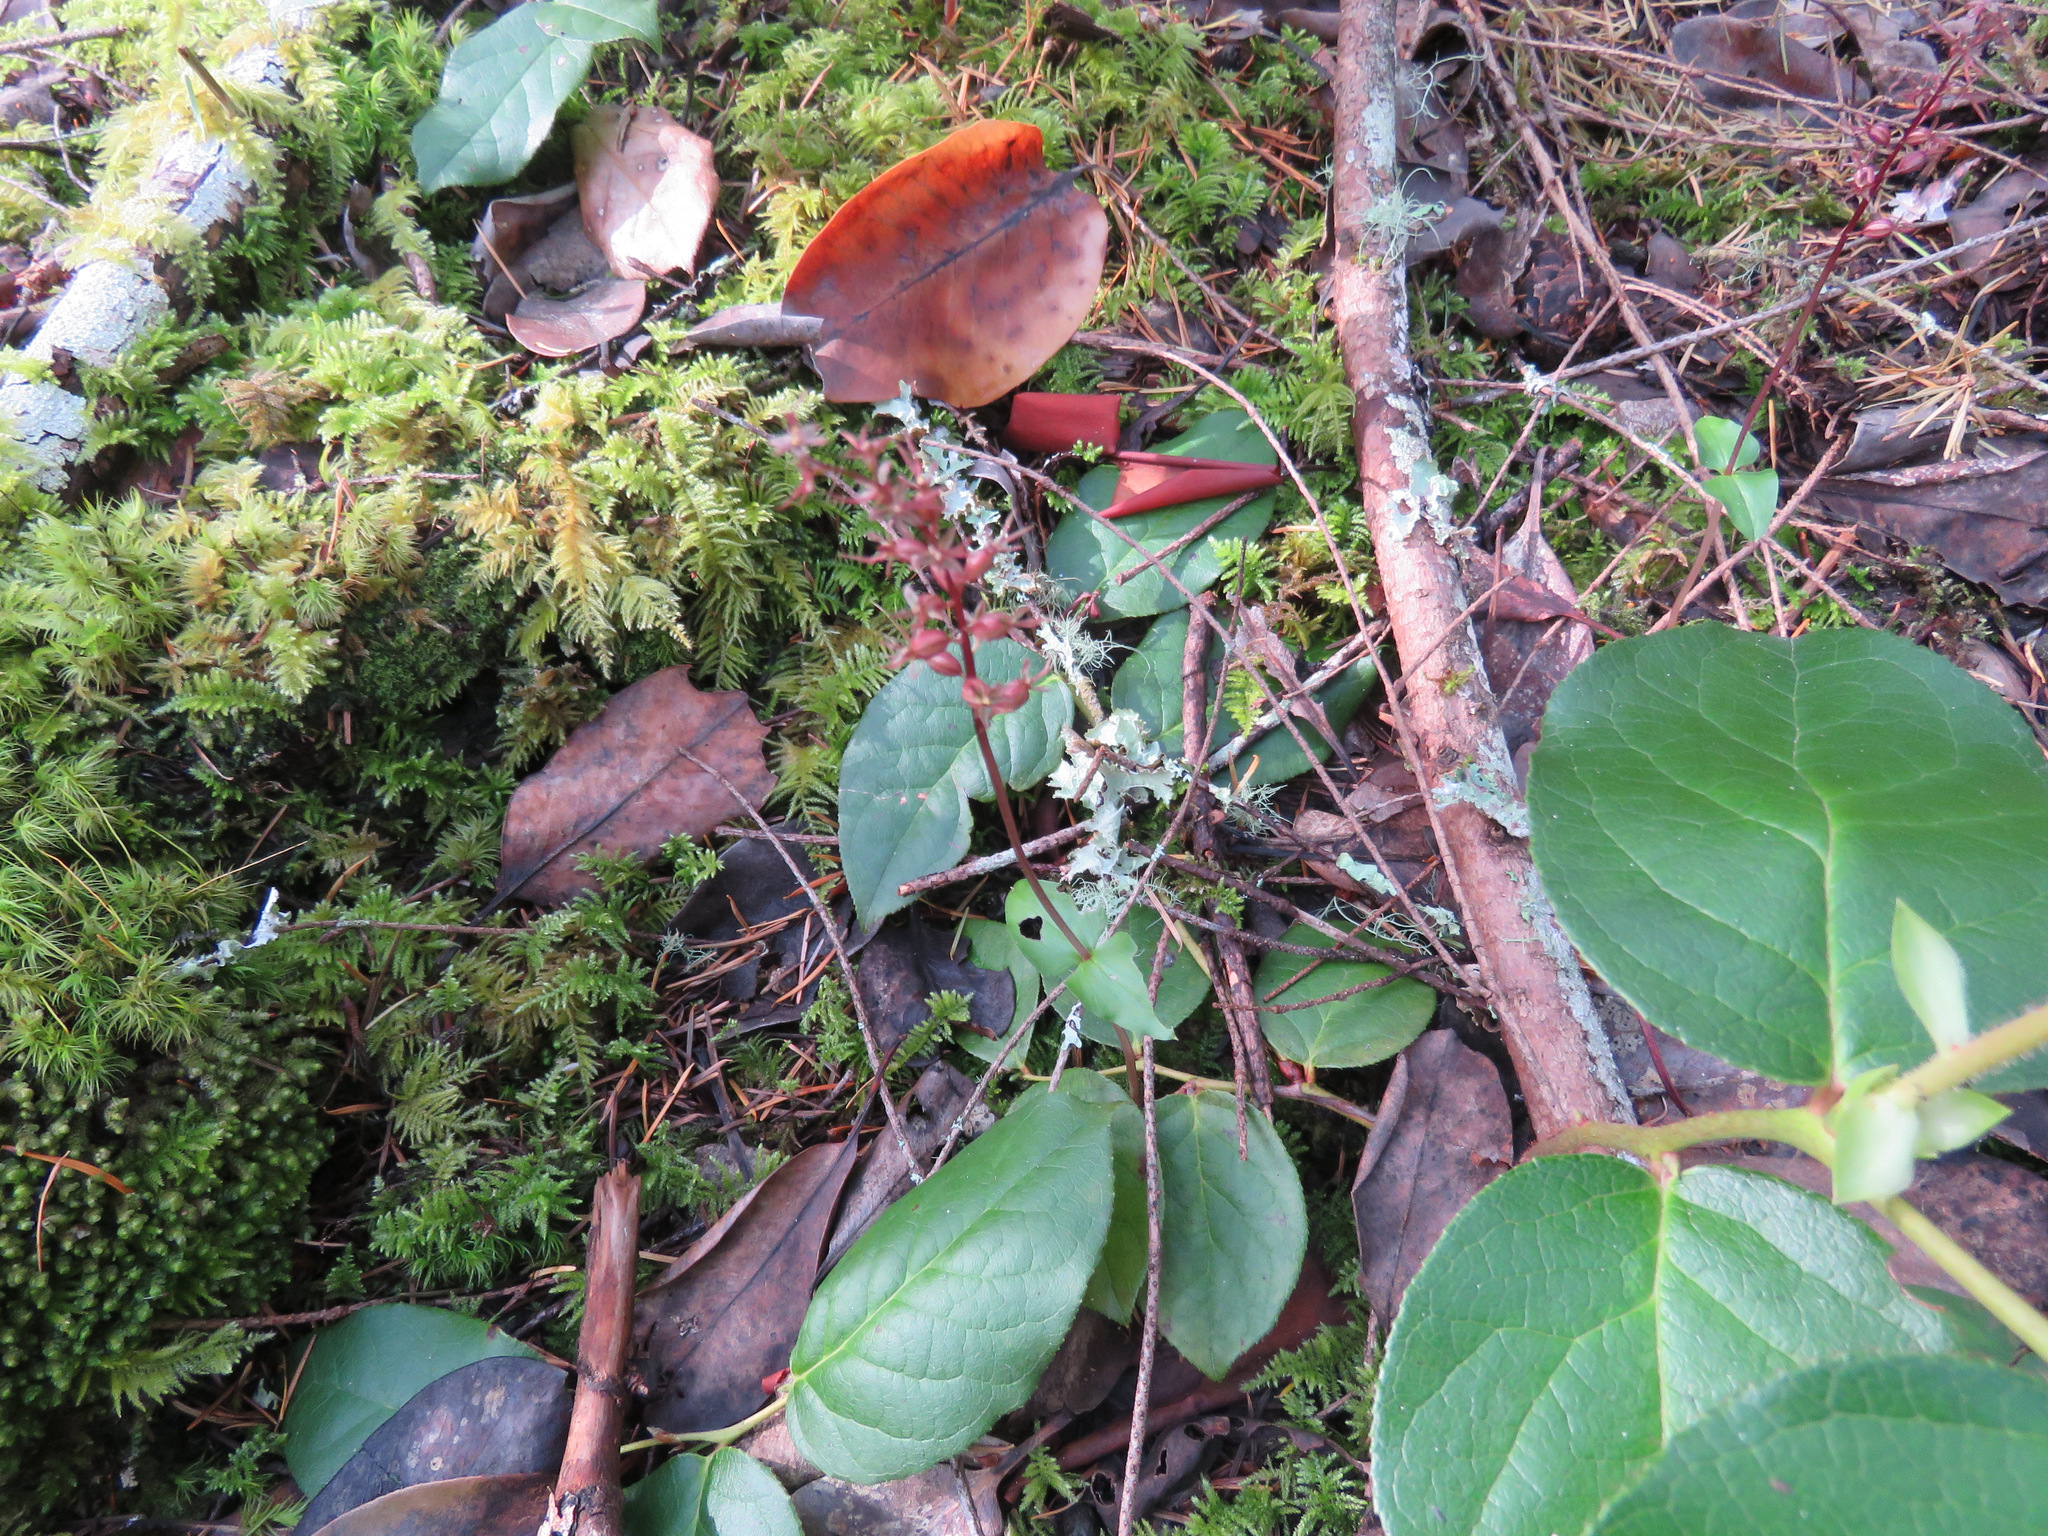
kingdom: Plantae
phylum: Tracheophyta
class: Liliopsida
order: Asparagales
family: Orchidaceae
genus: Neottia
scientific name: Neottia cordata
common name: Lesser twayblade
